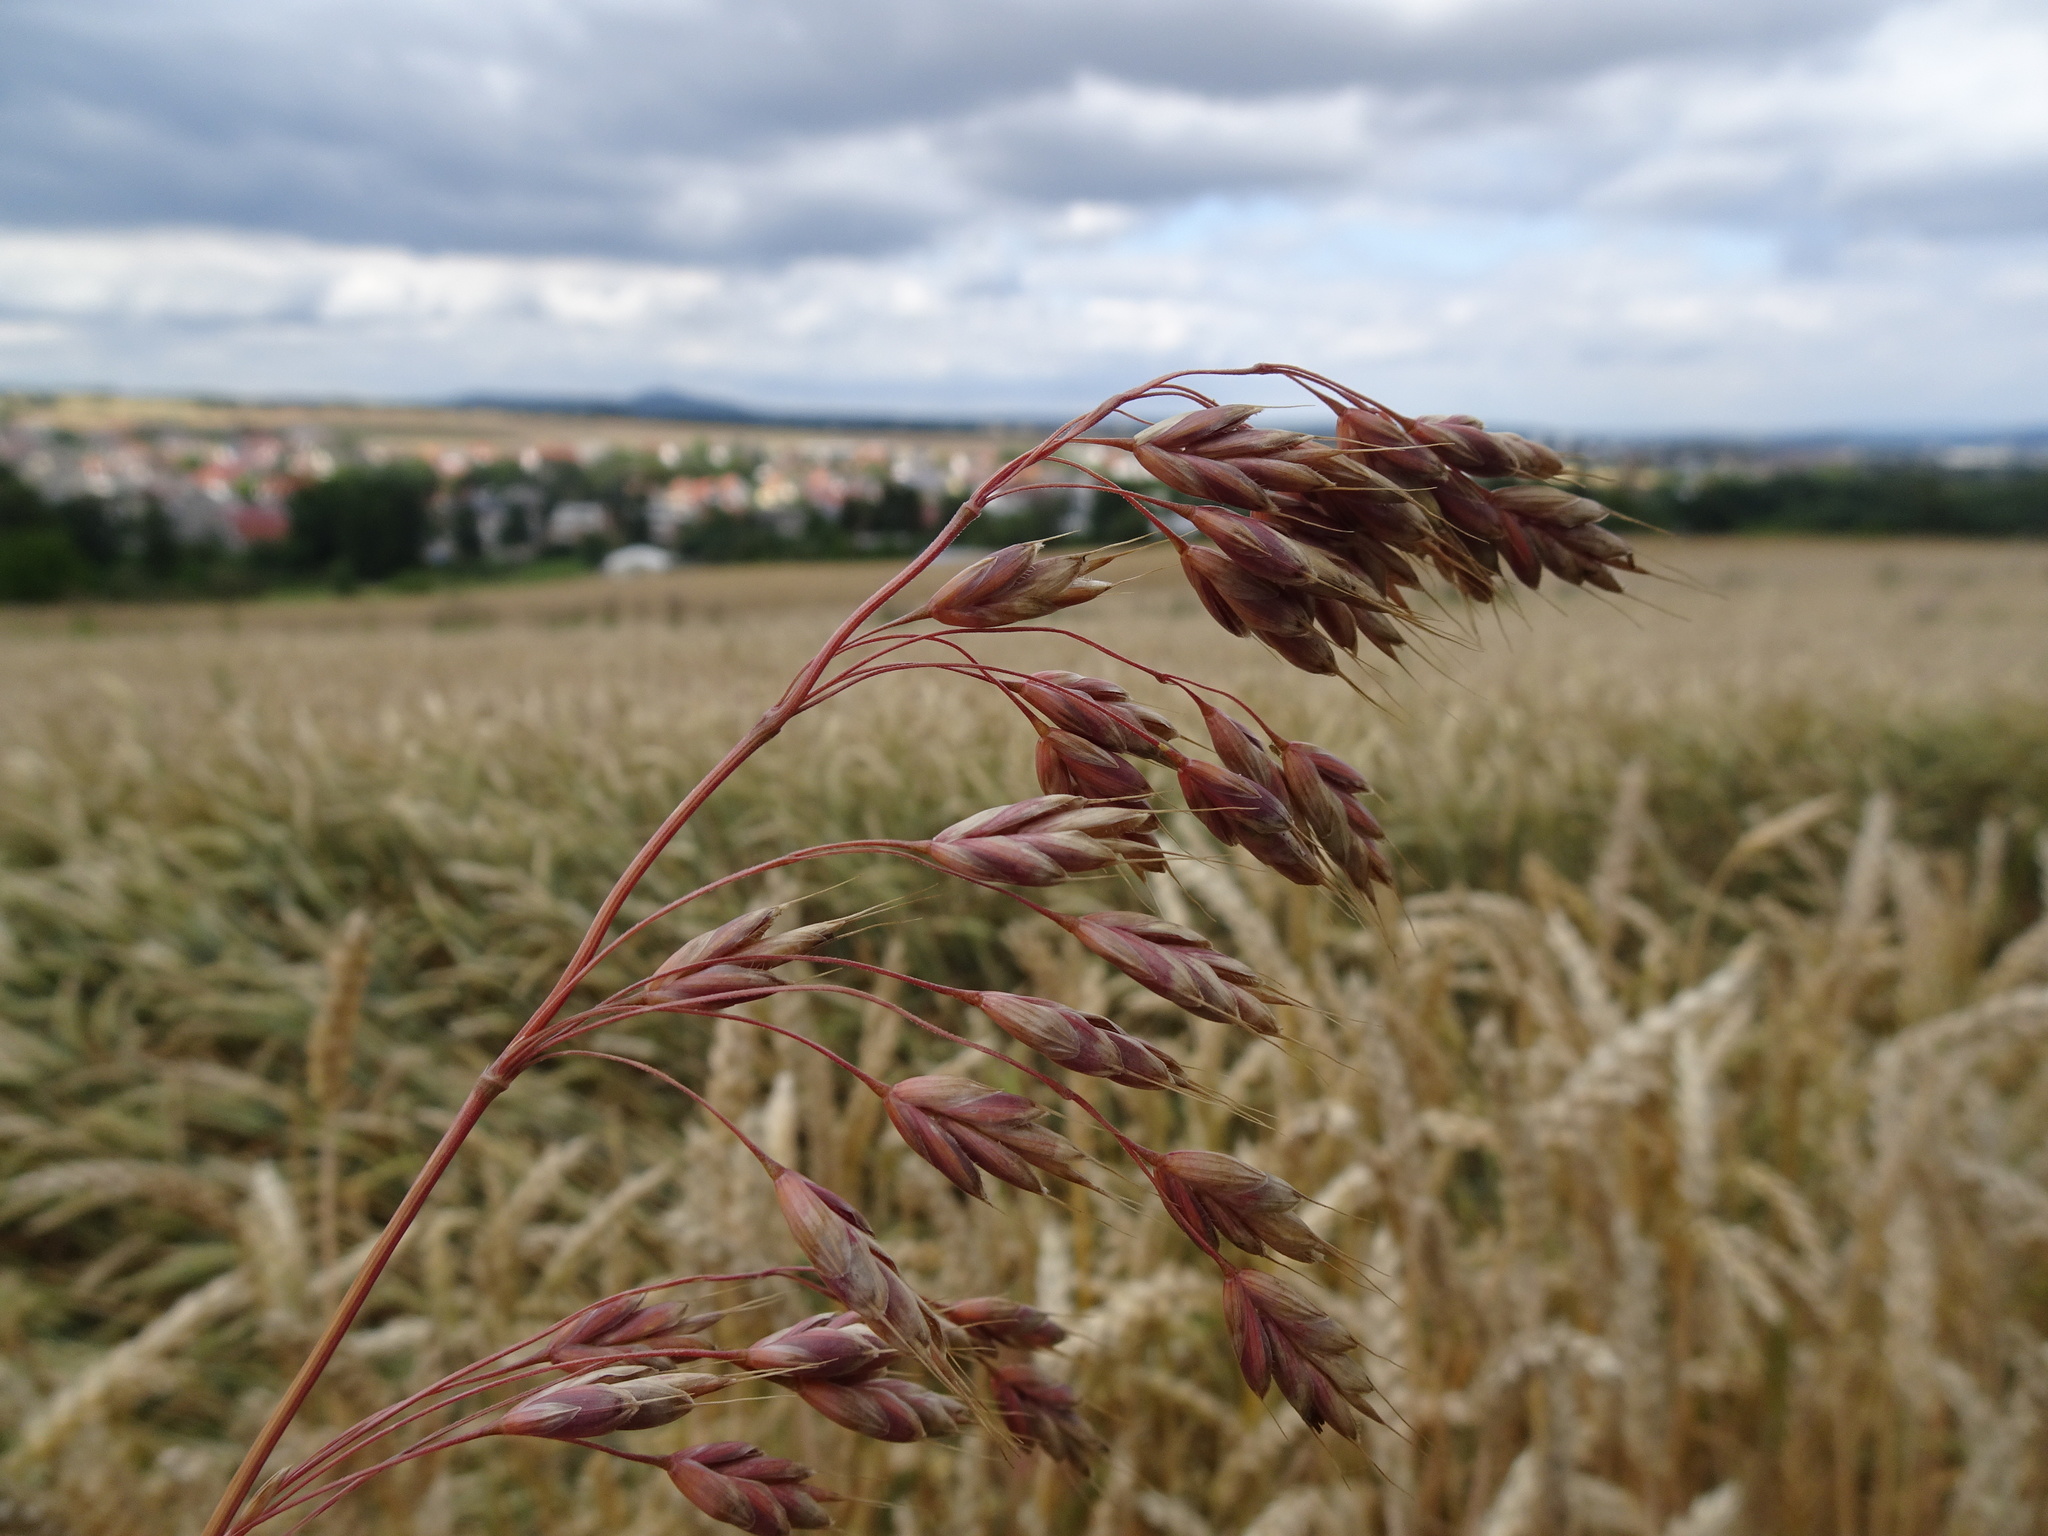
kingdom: Plantae
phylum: Tracheophyta
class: Liliopsida
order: Poales
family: Poaceae
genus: Bromus
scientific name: Bromus secalinus
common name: Rye brome
